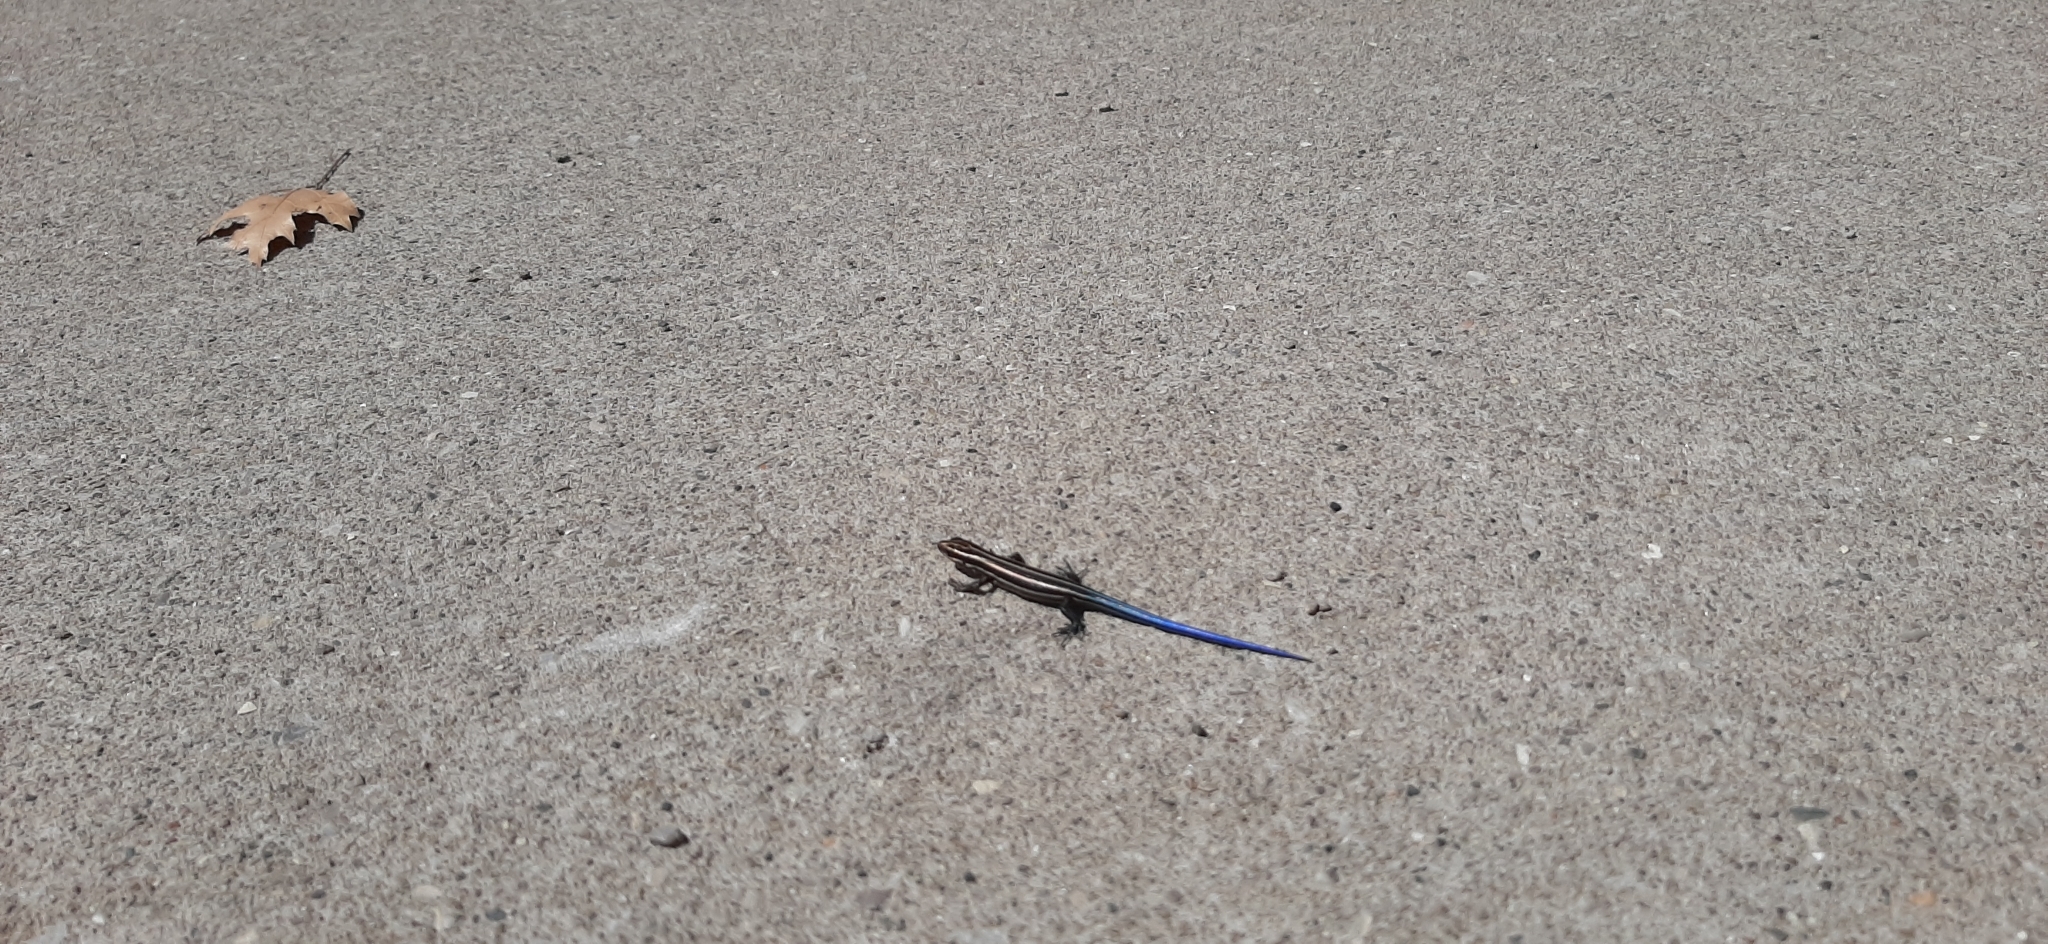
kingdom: Animalia
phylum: Chordata
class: Squamata
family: Scincidae
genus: Plestiodon
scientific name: Plestiodon fasciatus
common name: Five-lined skink
